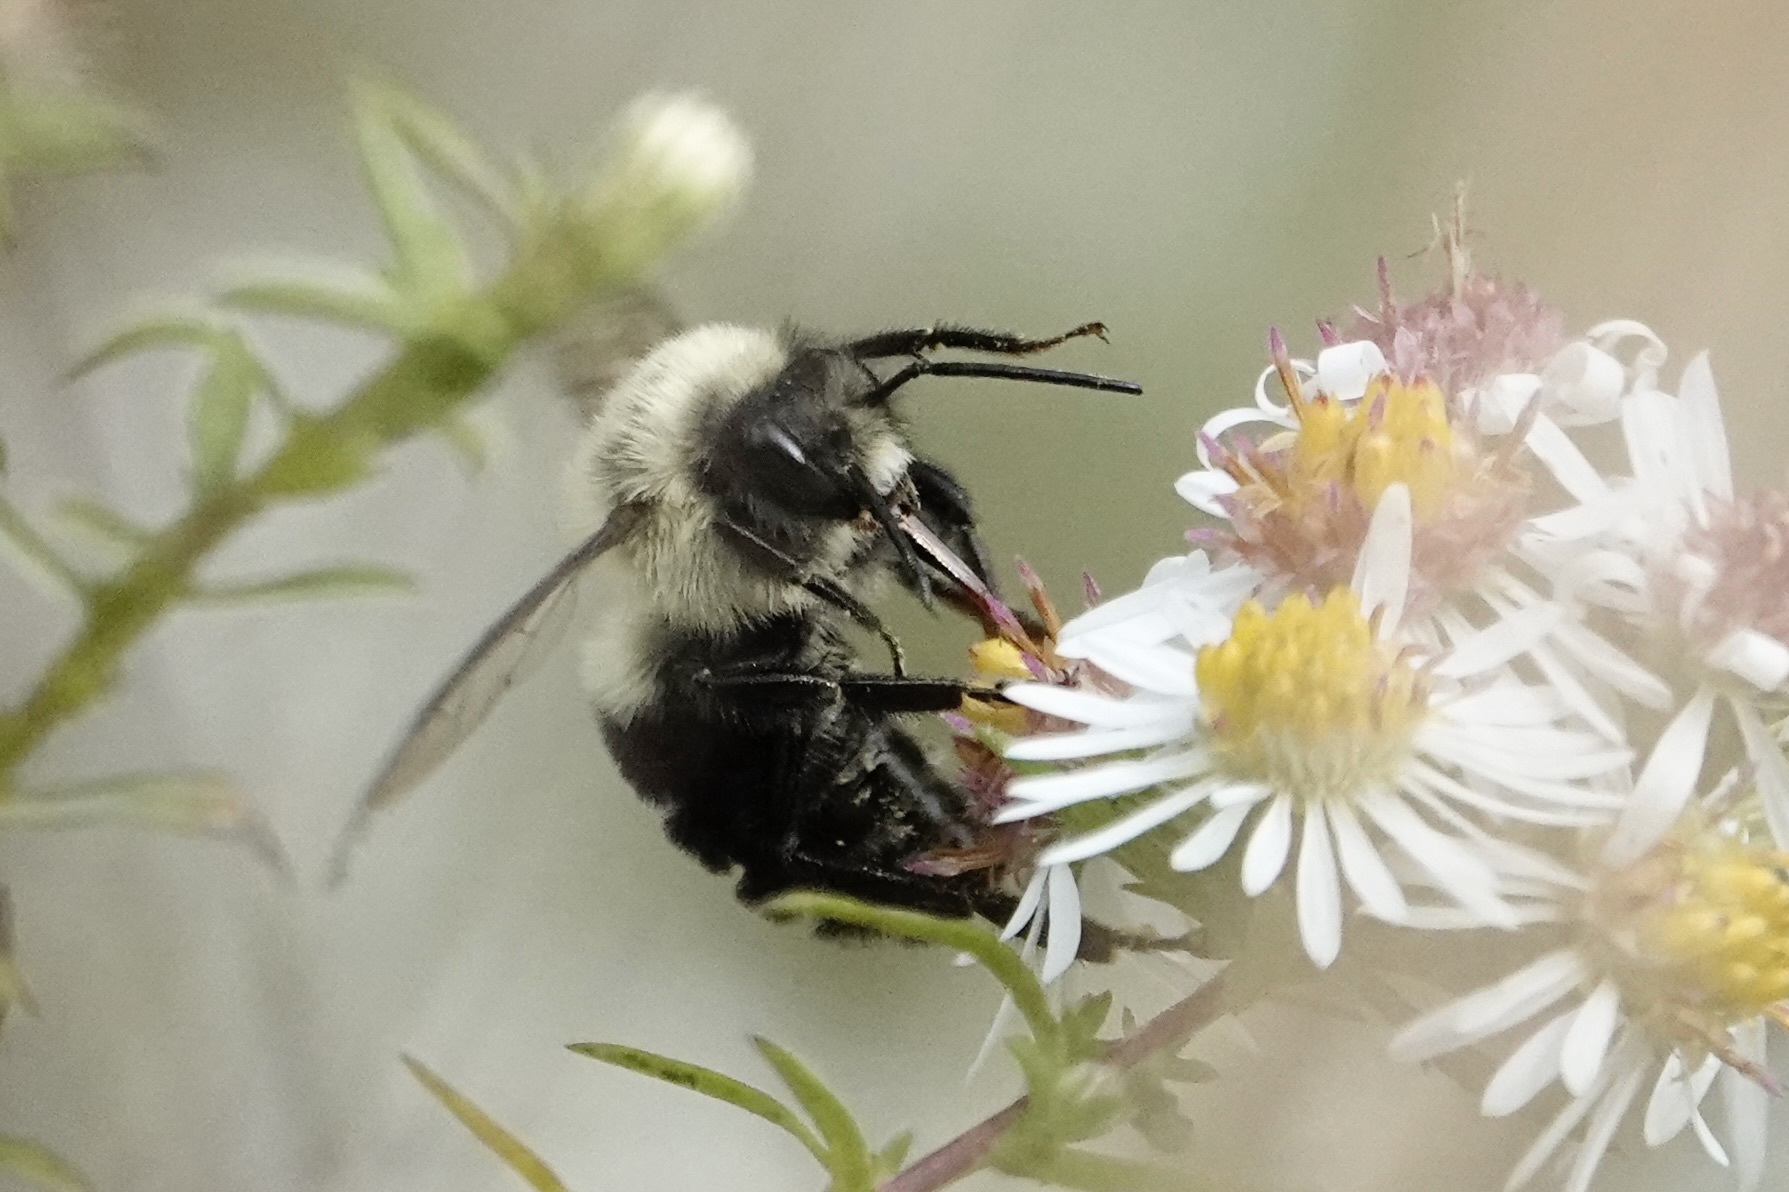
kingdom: Animalia
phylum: Arthropoda
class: Insecta
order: Hymenoptera
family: Apidae
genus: Bombus
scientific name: Bombus impatiens
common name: Common eastern bumble bee
